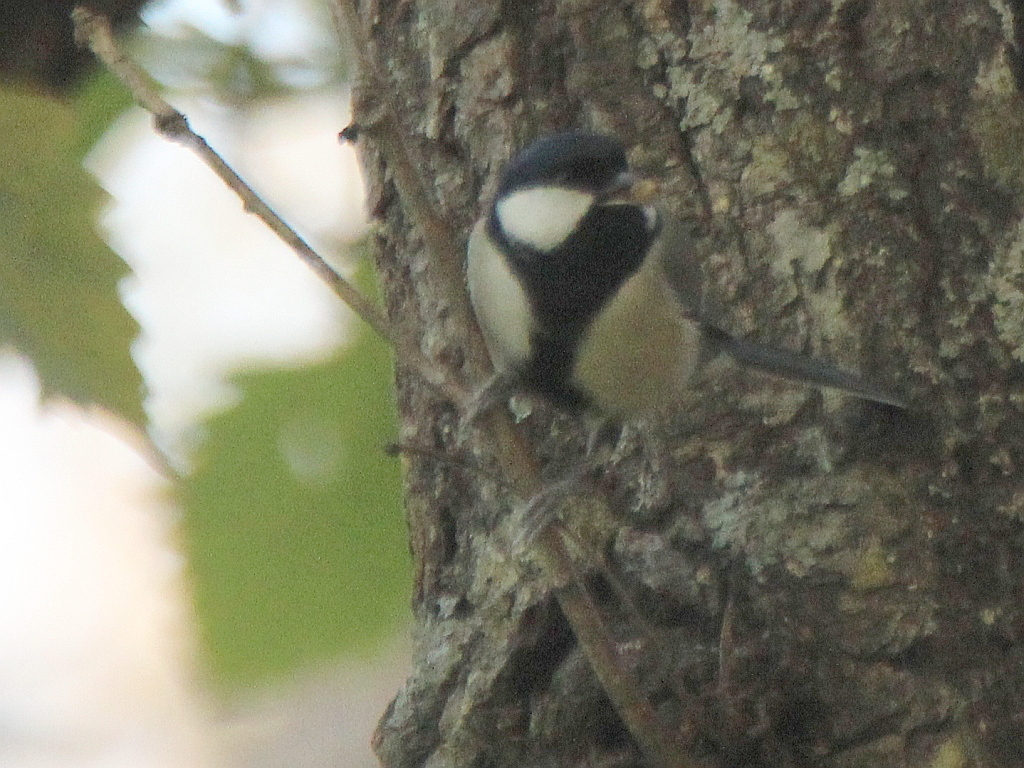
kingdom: Animalia
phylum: Chordata
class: Aves
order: Passeriformes
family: Paridae
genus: Parus
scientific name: Parus minor
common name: Japanese tit
